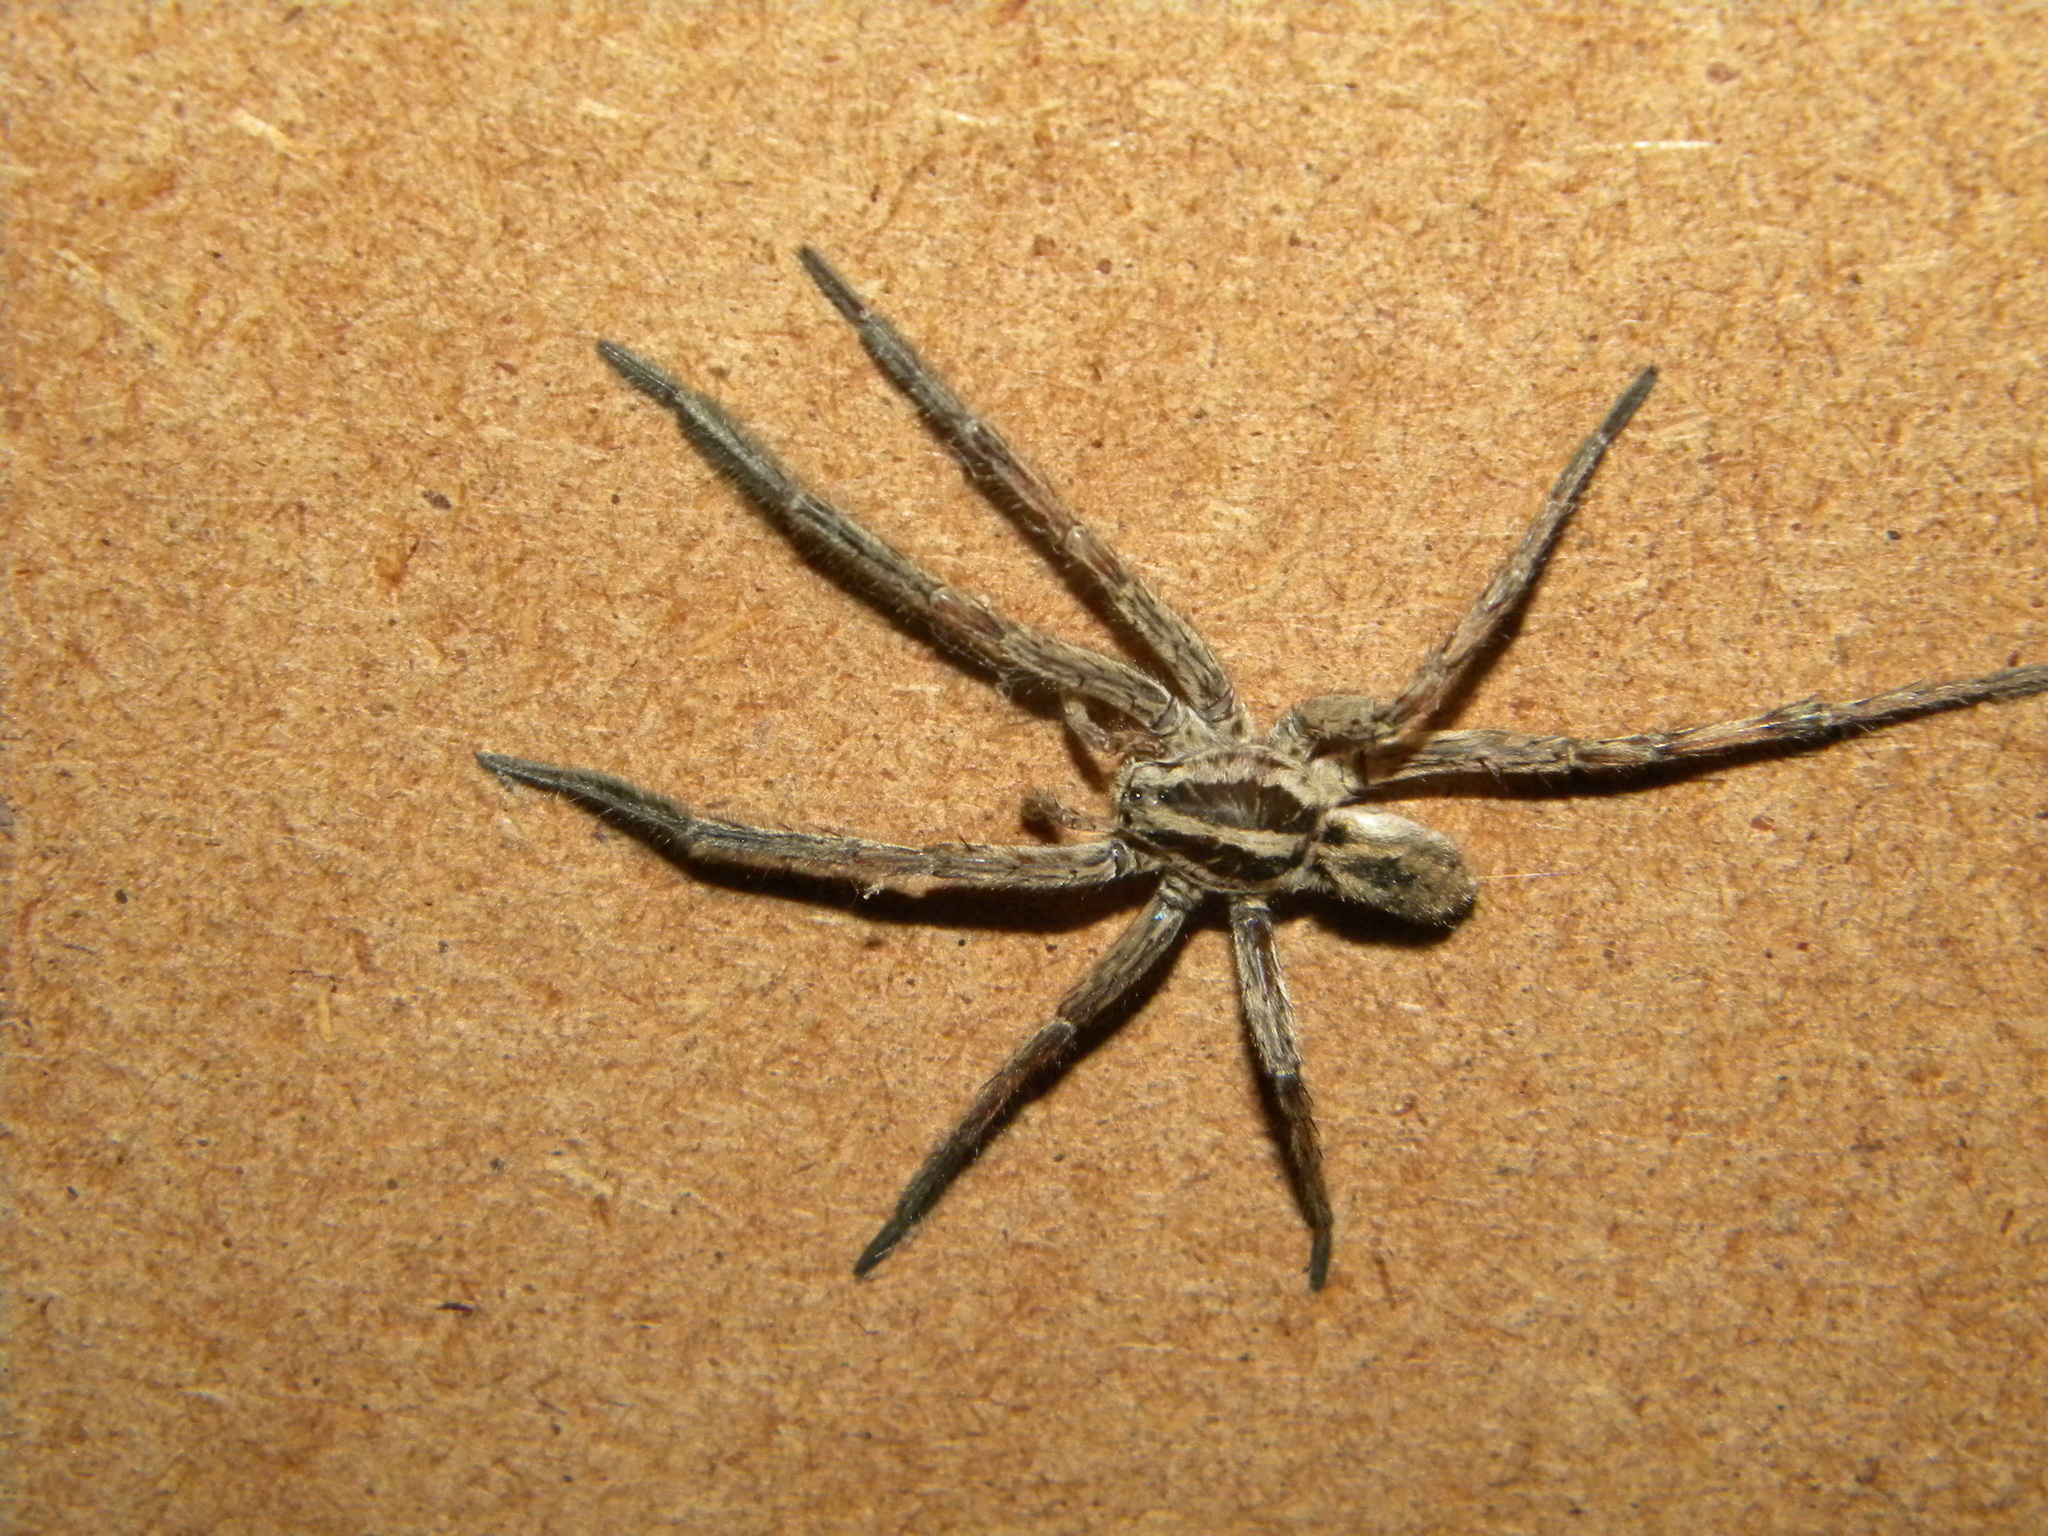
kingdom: Animalia
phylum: Arthropoda
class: Arachnida
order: Araneae
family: Lycosidae
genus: Hogna
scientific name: Hogna radiata
